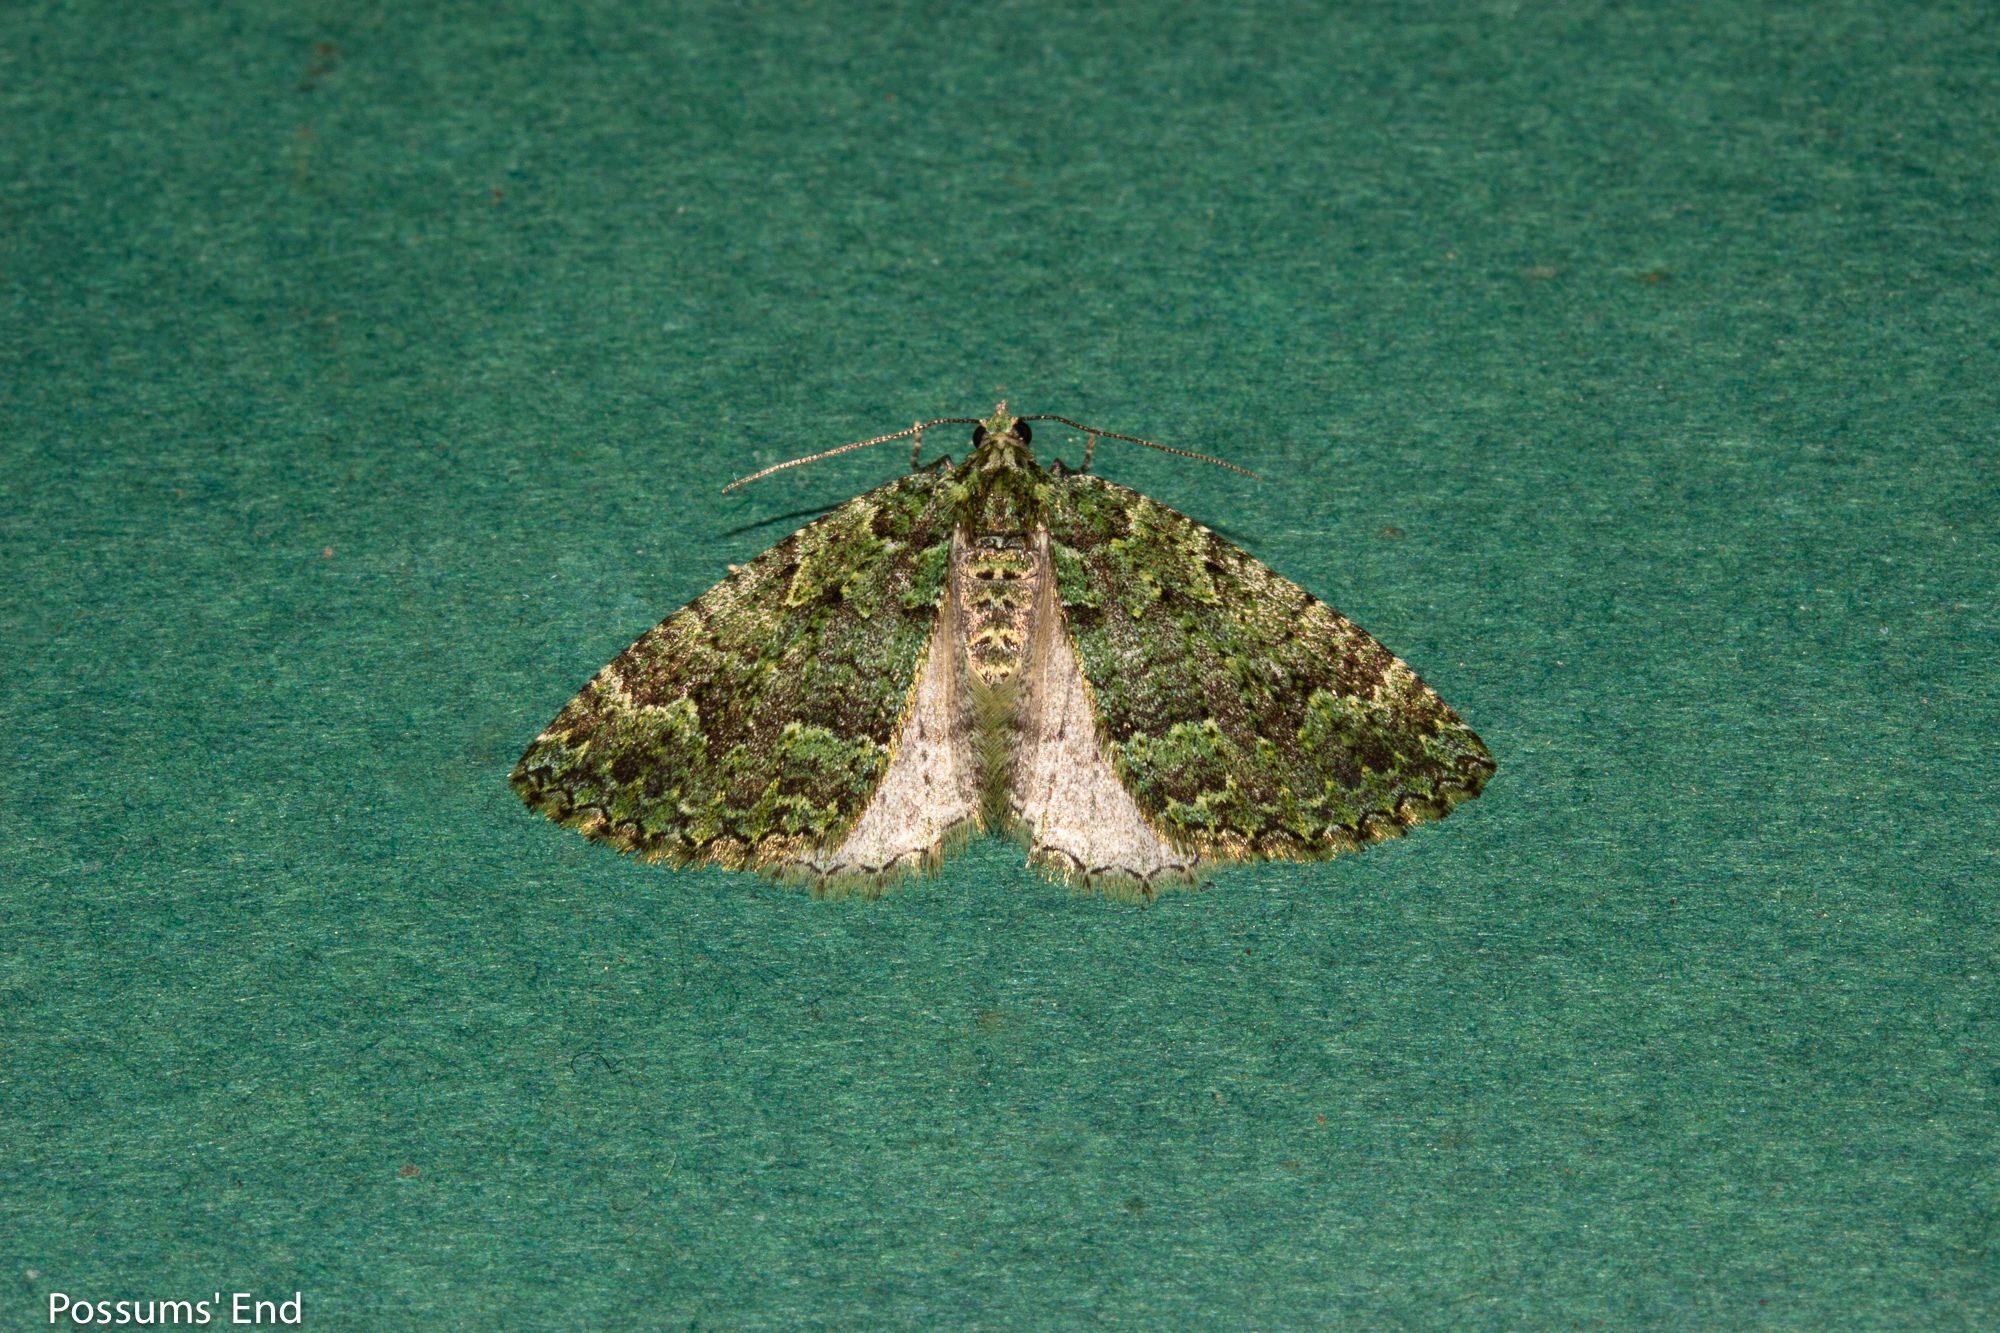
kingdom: Animalia
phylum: Arthropoda
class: Insecta
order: Lepidoptera
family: Geometridae
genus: Austrocidaria
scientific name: Austrocidaria callichlora
